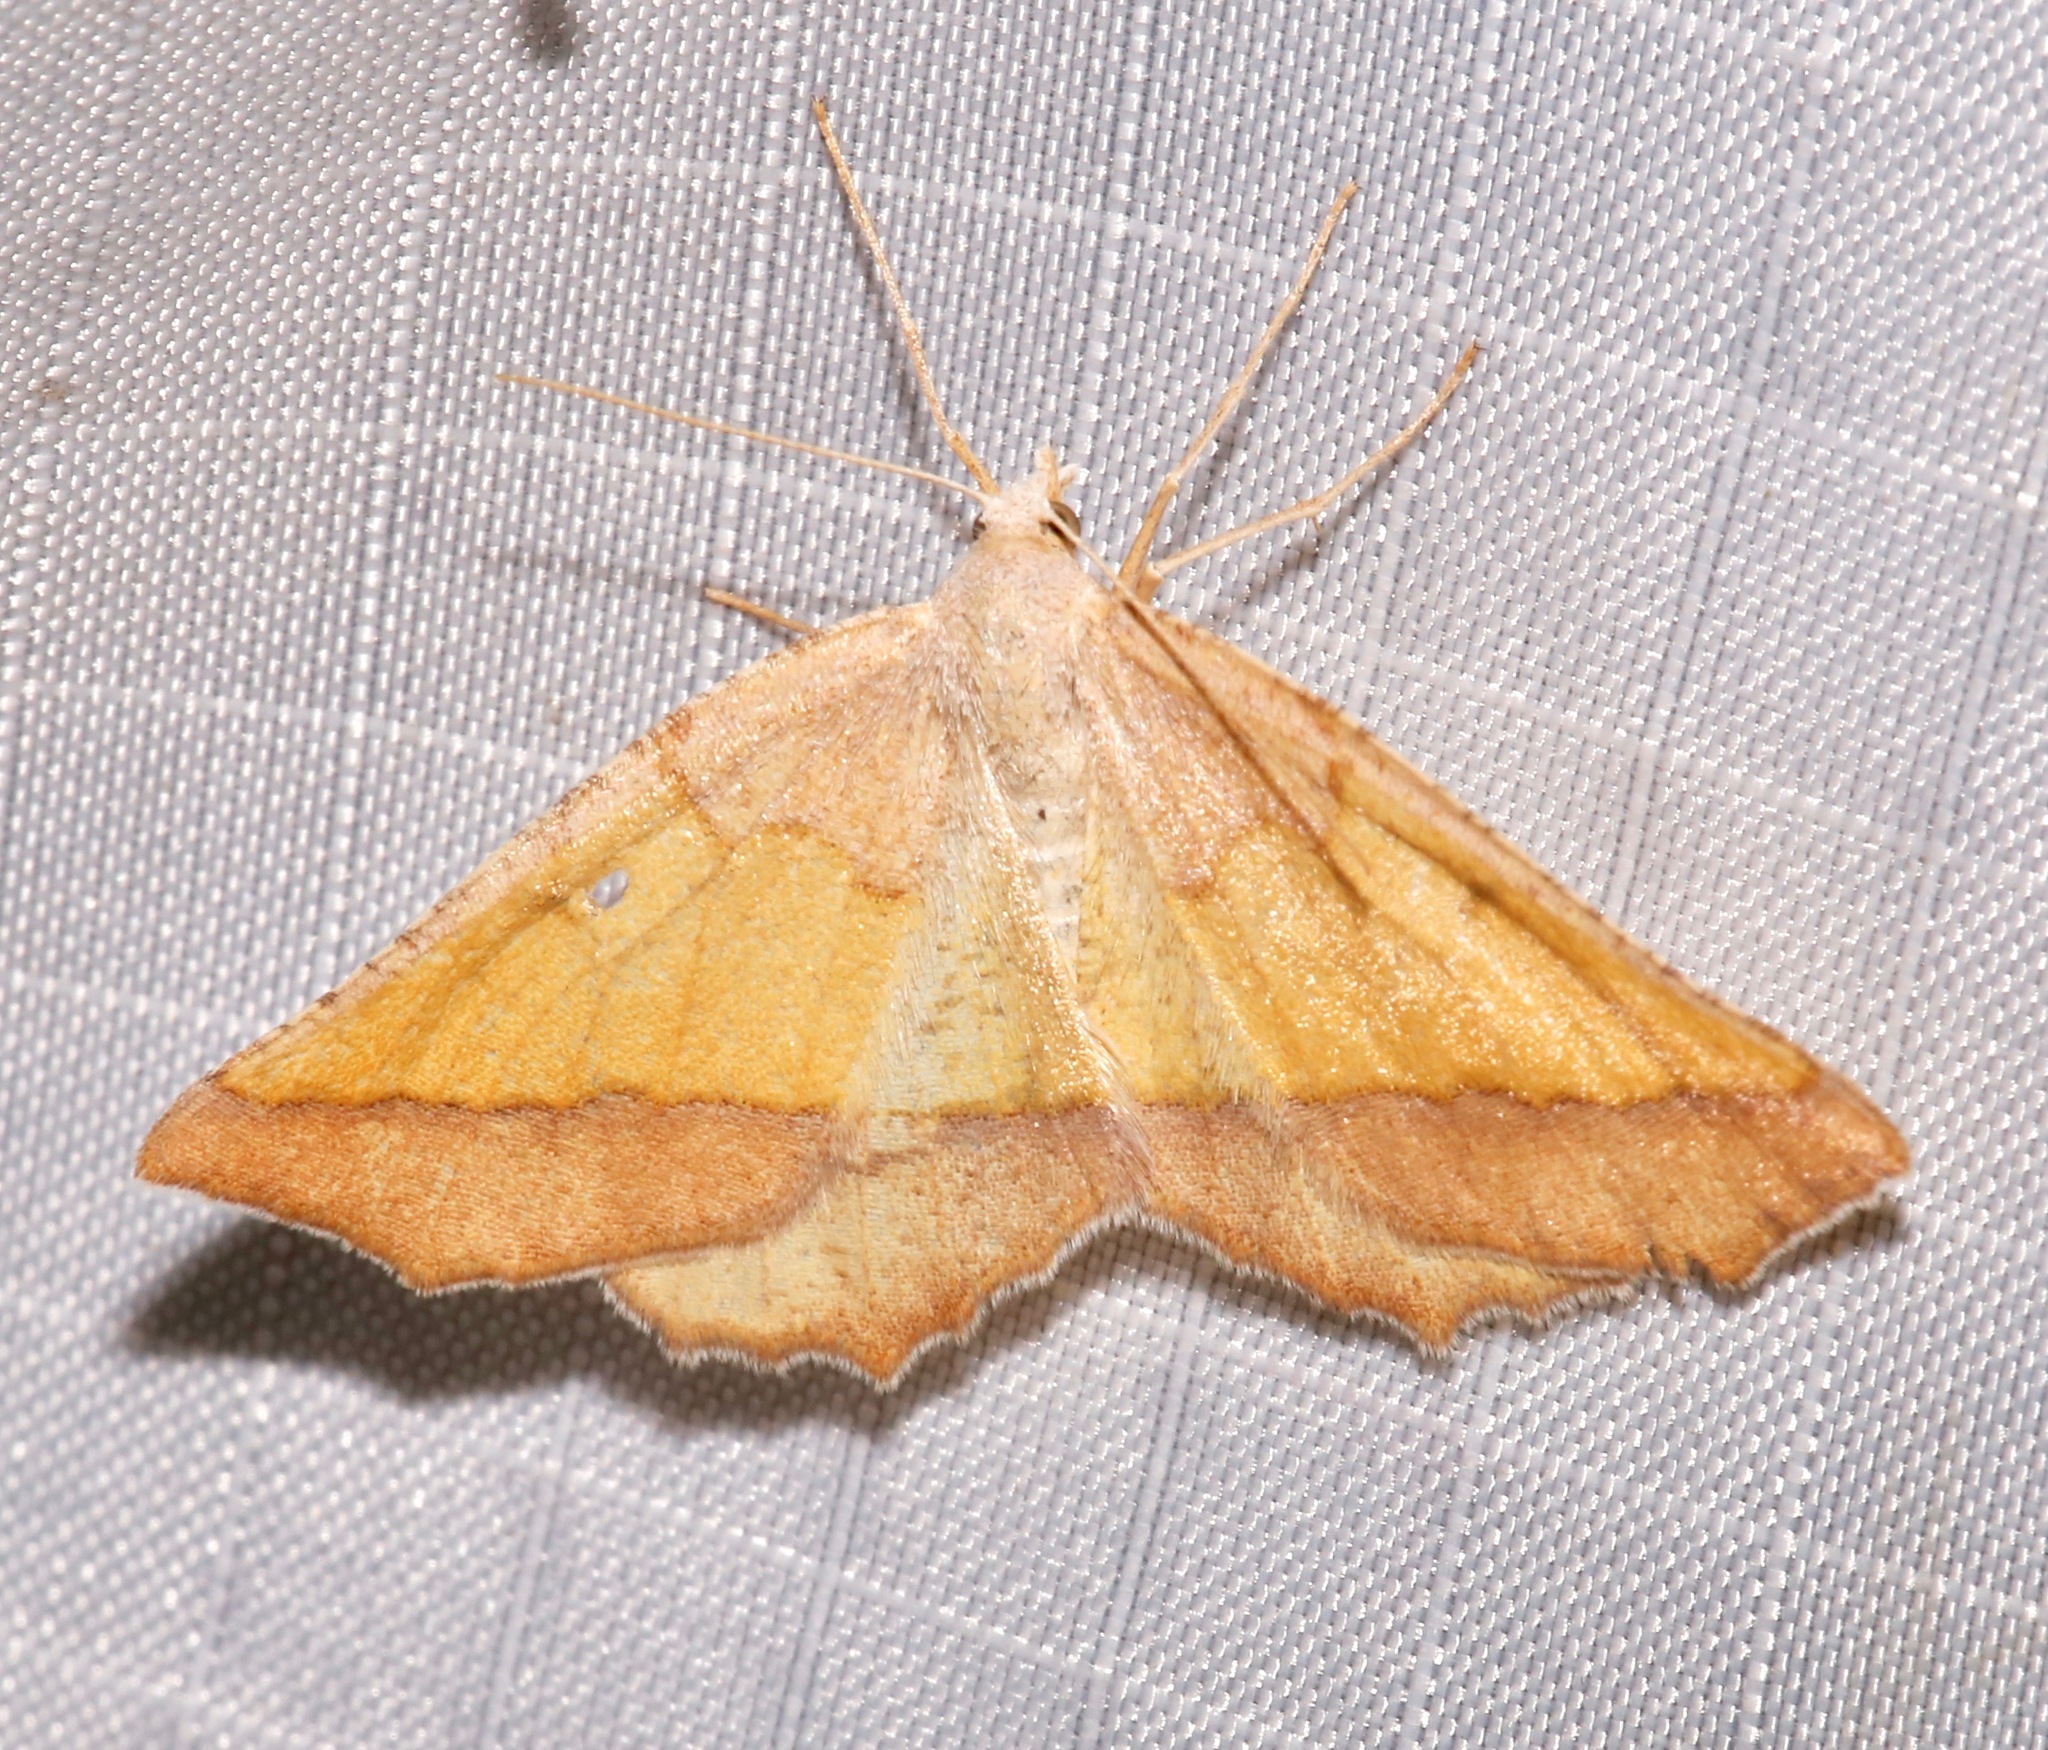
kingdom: Animalia
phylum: Arthropoda
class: Insecta
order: Lepidoptera
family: Geometridae
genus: Lychnosea
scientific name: Lychnosea helveolaria
